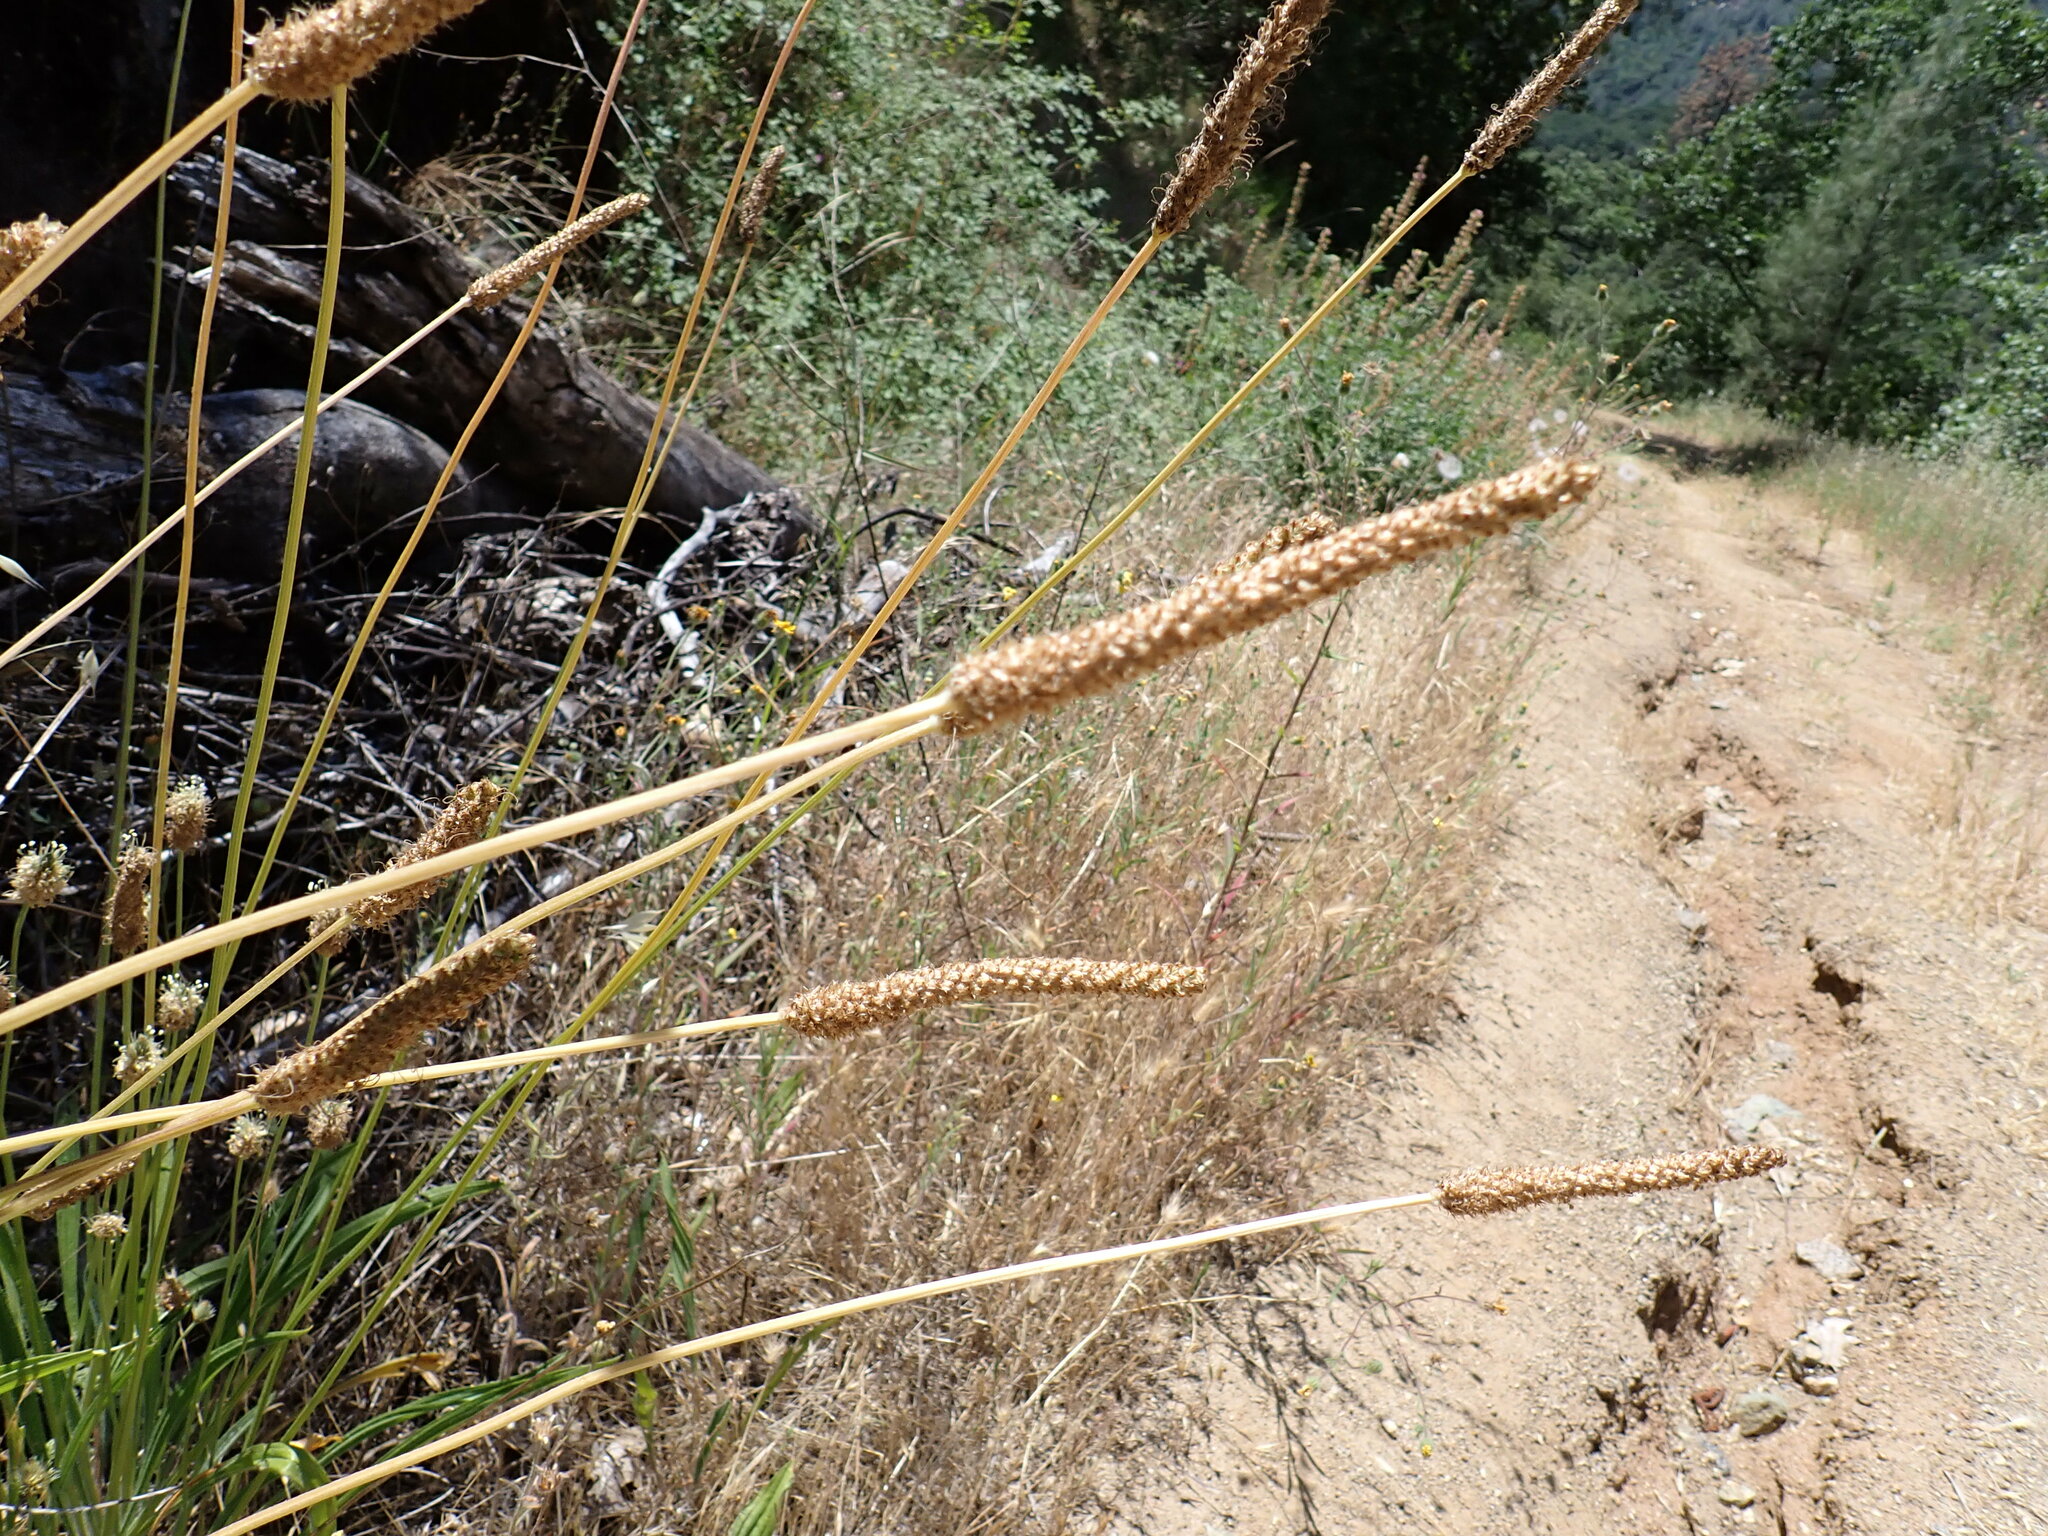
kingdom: Plantae
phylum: Tracheophyta
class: Magnoliopsida
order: Lamiales
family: Plantaginaceae
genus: Plantago
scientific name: Plantago lanceolata
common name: Ribwort plantain
